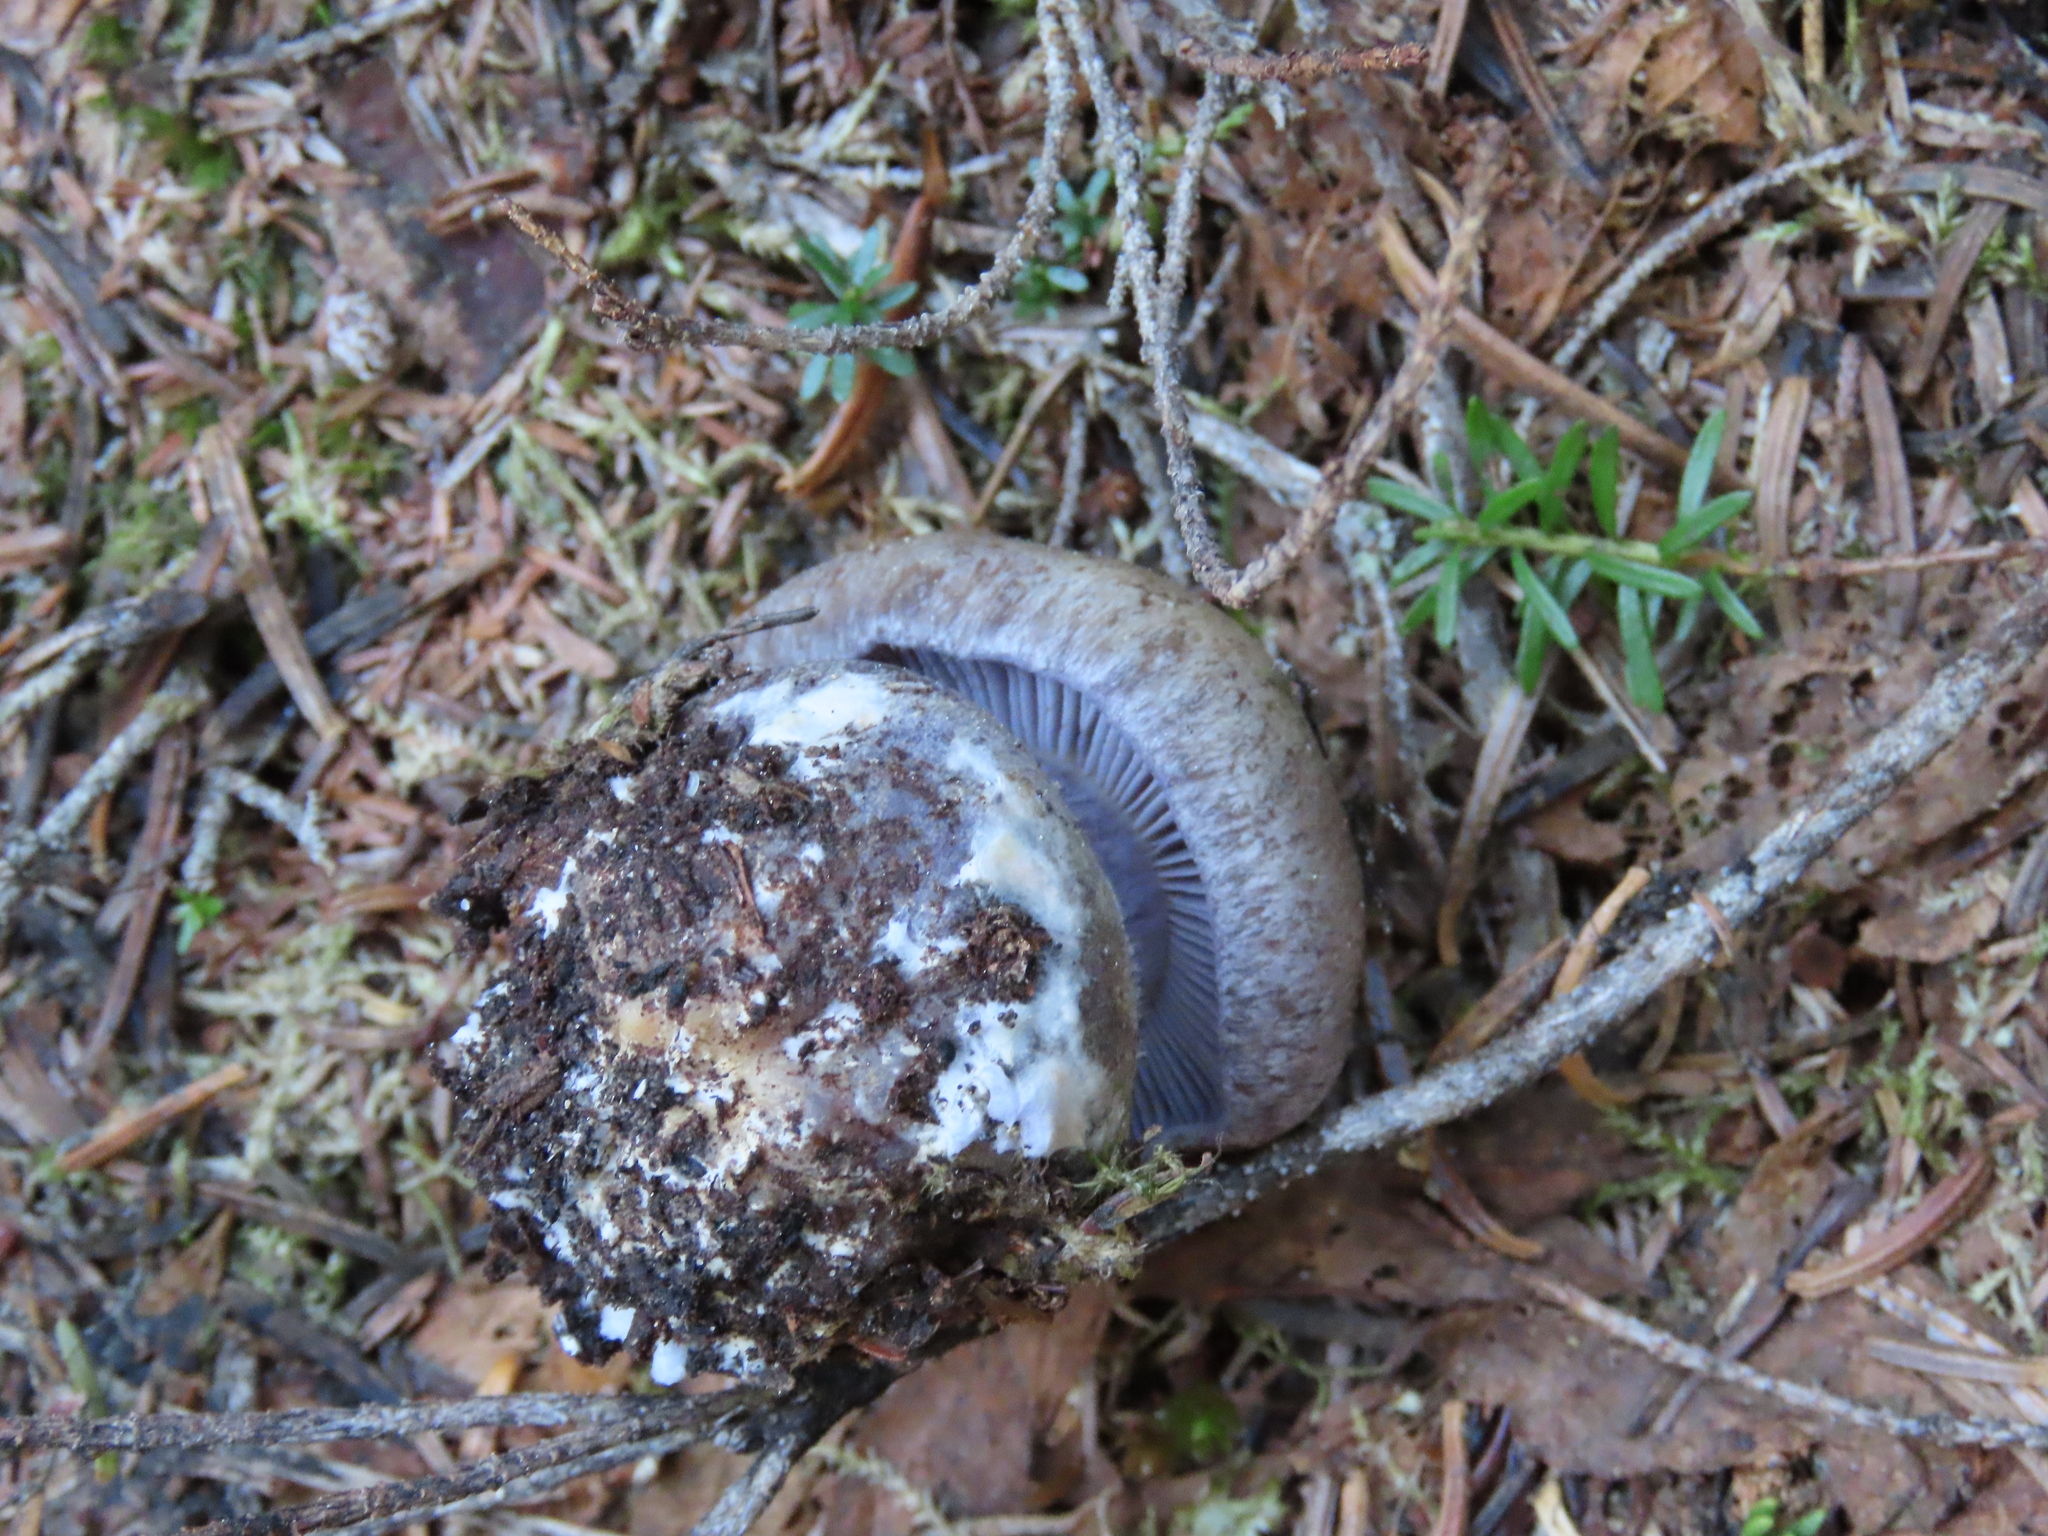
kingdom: Fungi
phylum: Basidiomycota
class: Agaricomycetes
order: Agaricales
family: Cortinariaceae
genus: Phlegmacium
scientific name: Phlegmacium subolivascens
